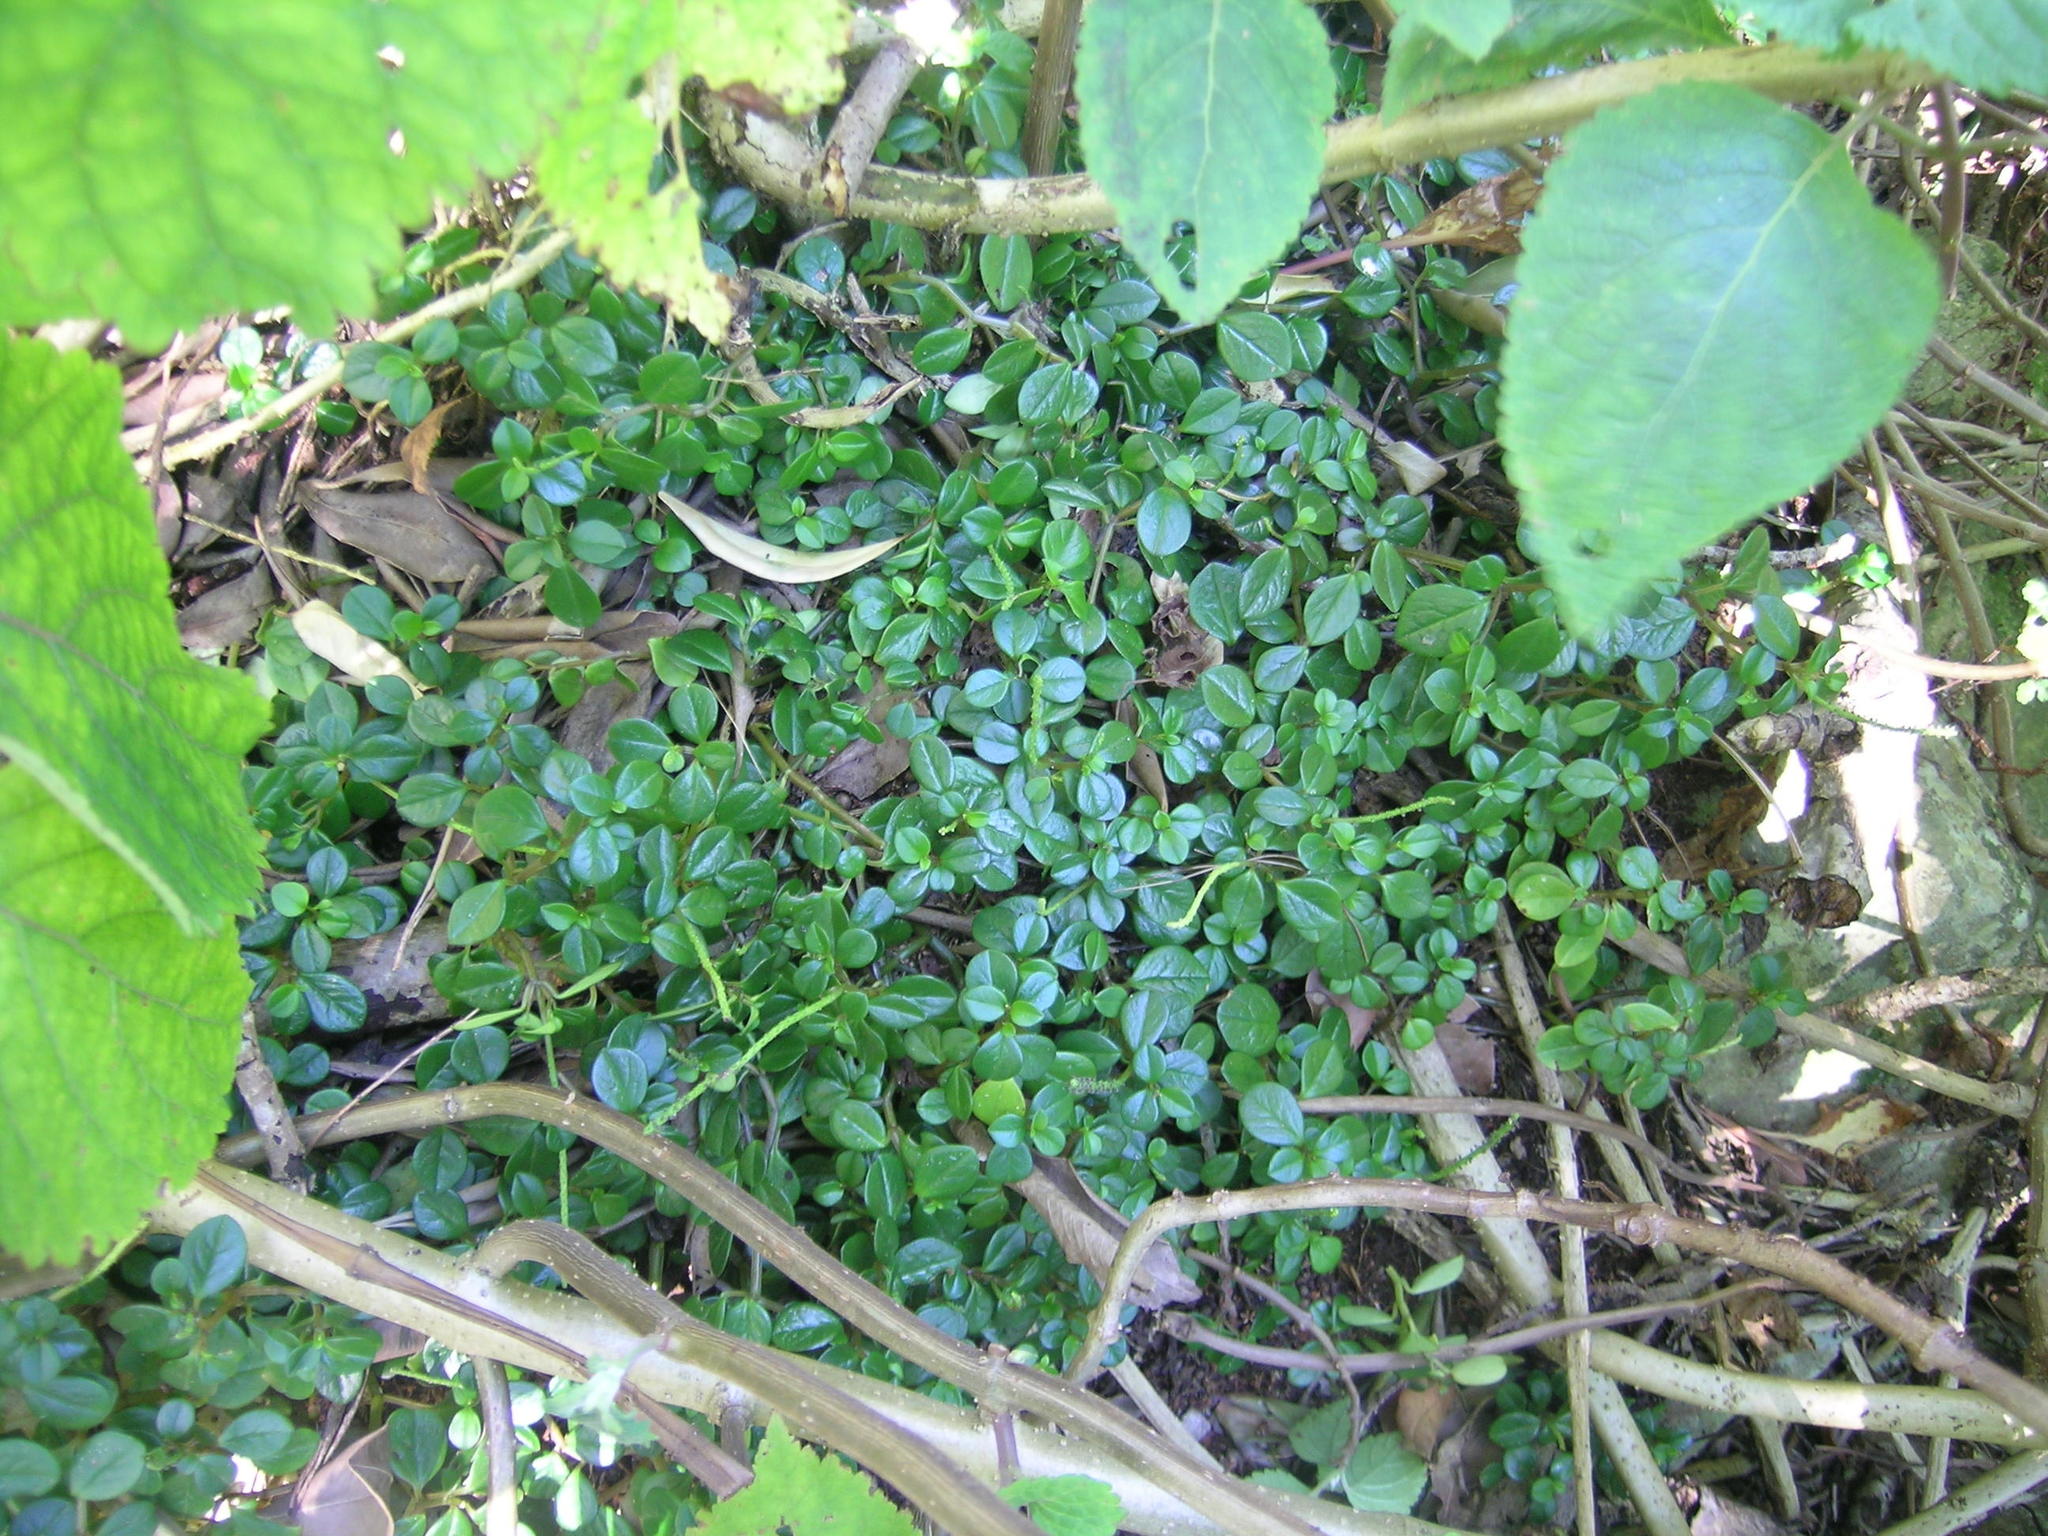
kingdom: Plantae
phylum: Tracheophyta
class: Magnoliopsida
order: Piperales
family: Piperaceae
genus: Peperomia
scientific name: Peperomia retusa
